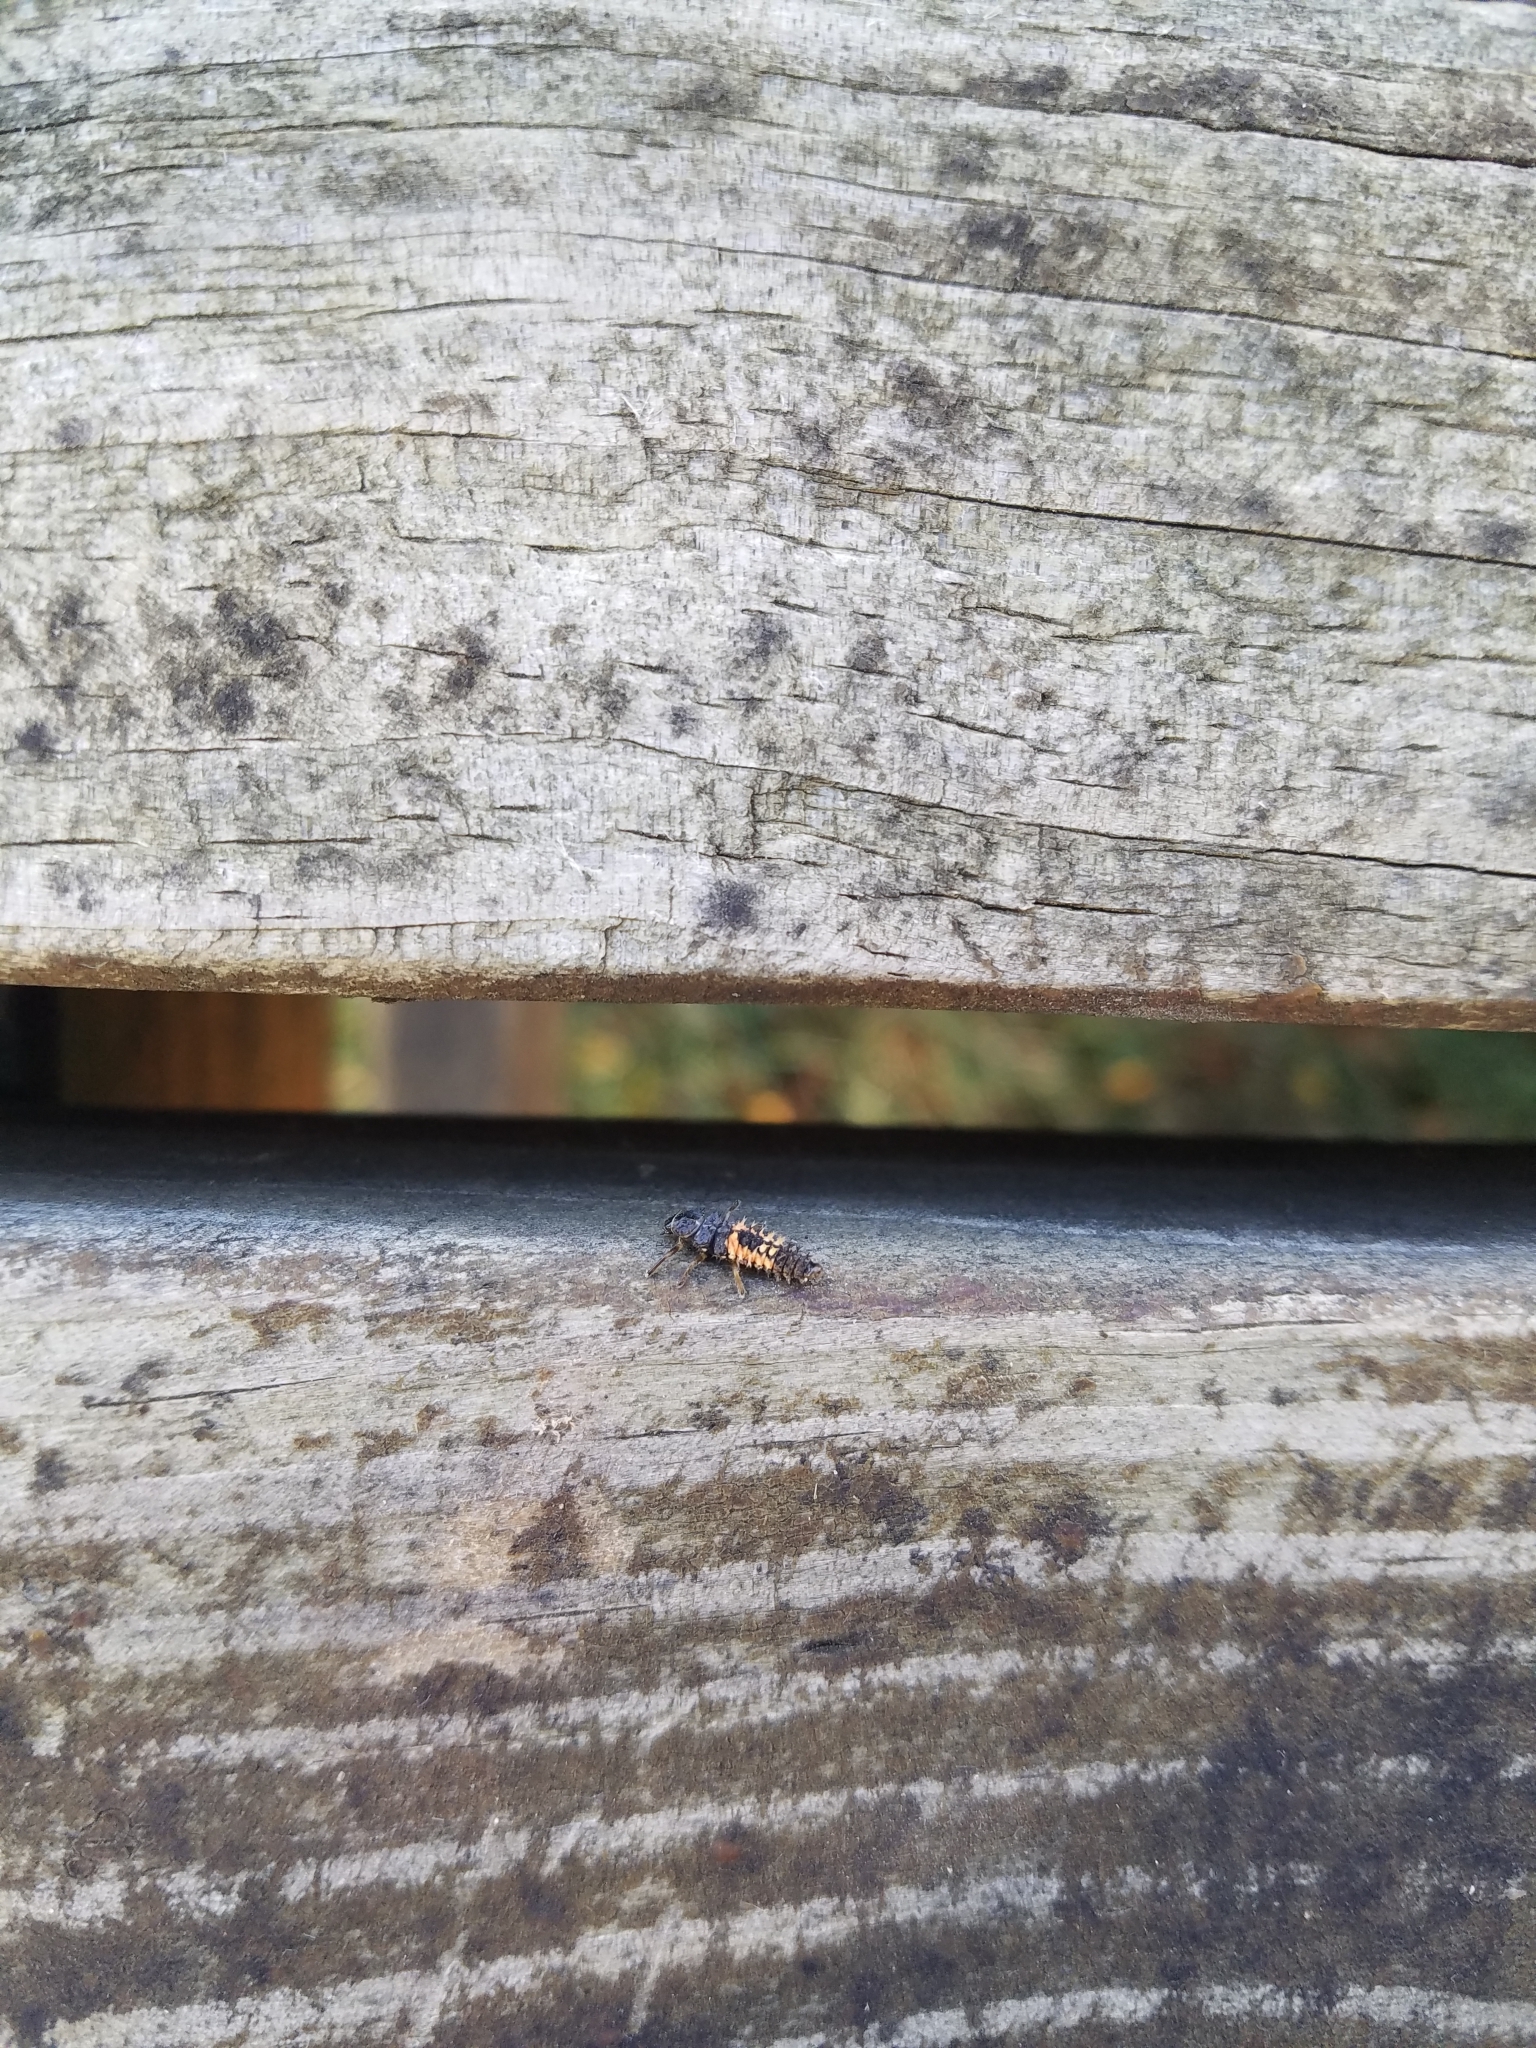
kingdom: Animalia
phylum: Arthropoda
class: Insecta
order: Coleoptera
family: Coccinellidae
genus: Harmonia
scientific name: Harmonia axyridis
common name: Harlequin ladybird
